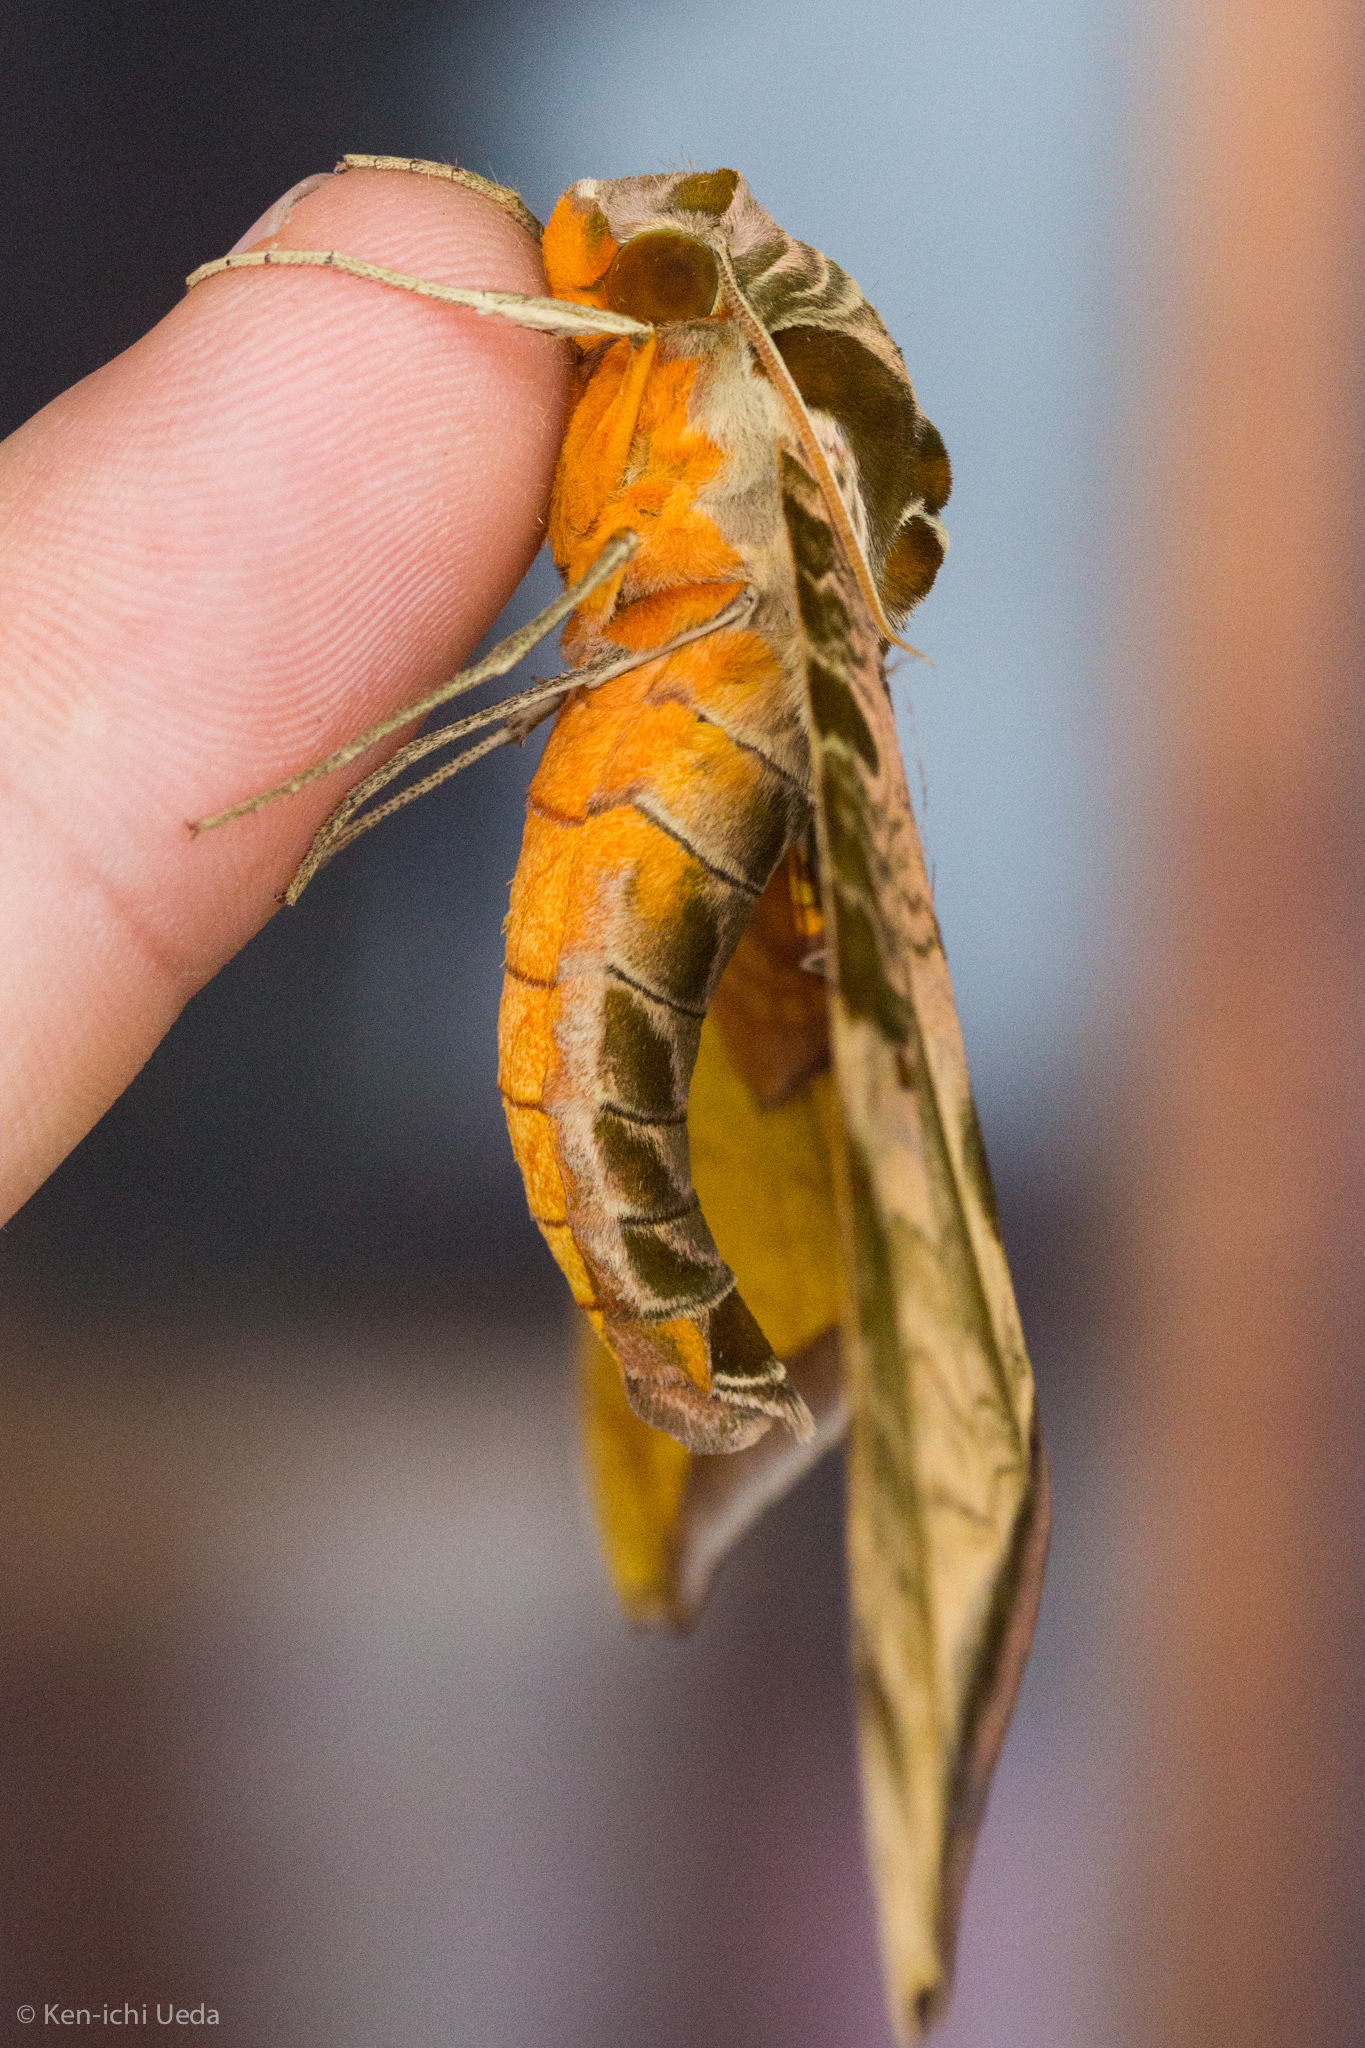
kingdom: Animalia
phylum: Arthropoda
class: Insecta
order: Lepidoptera
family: Sphingidae
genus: Protambulyx
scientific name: Protambulyx euryalus
